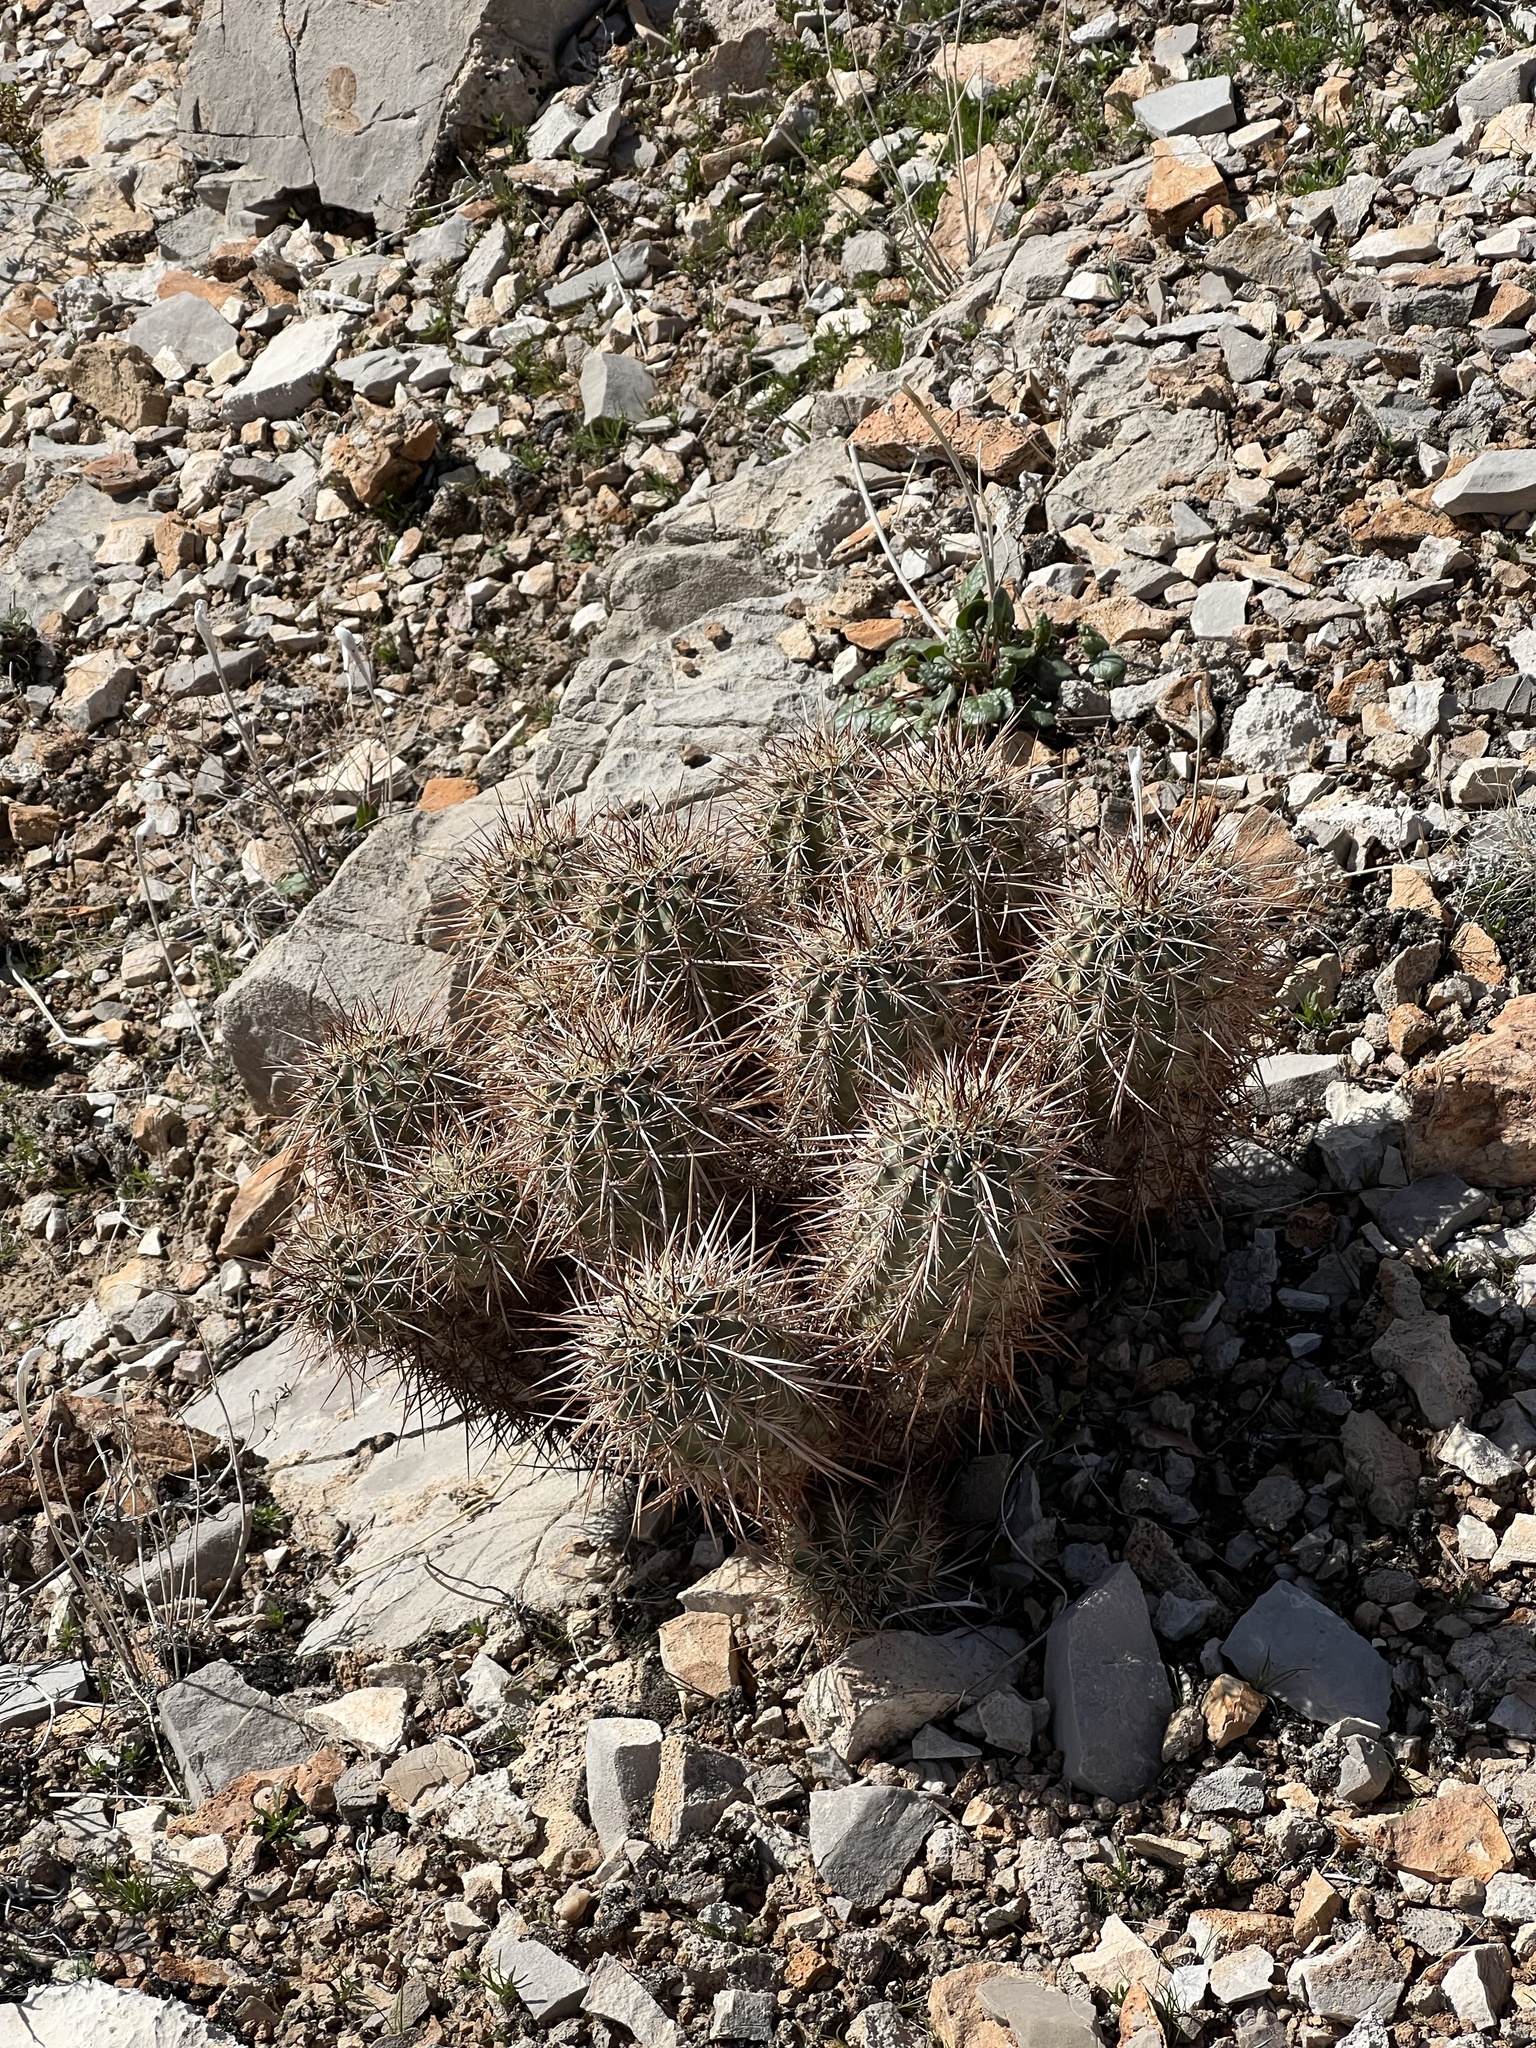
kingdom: Plantae
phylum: Tracheophyta
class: Magnoliopsida
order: Caryophyllales
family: Cactaceae
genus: Echinocereus
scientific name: Echinocereus engelmannii
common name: Engelmann's hedgehog cactus
